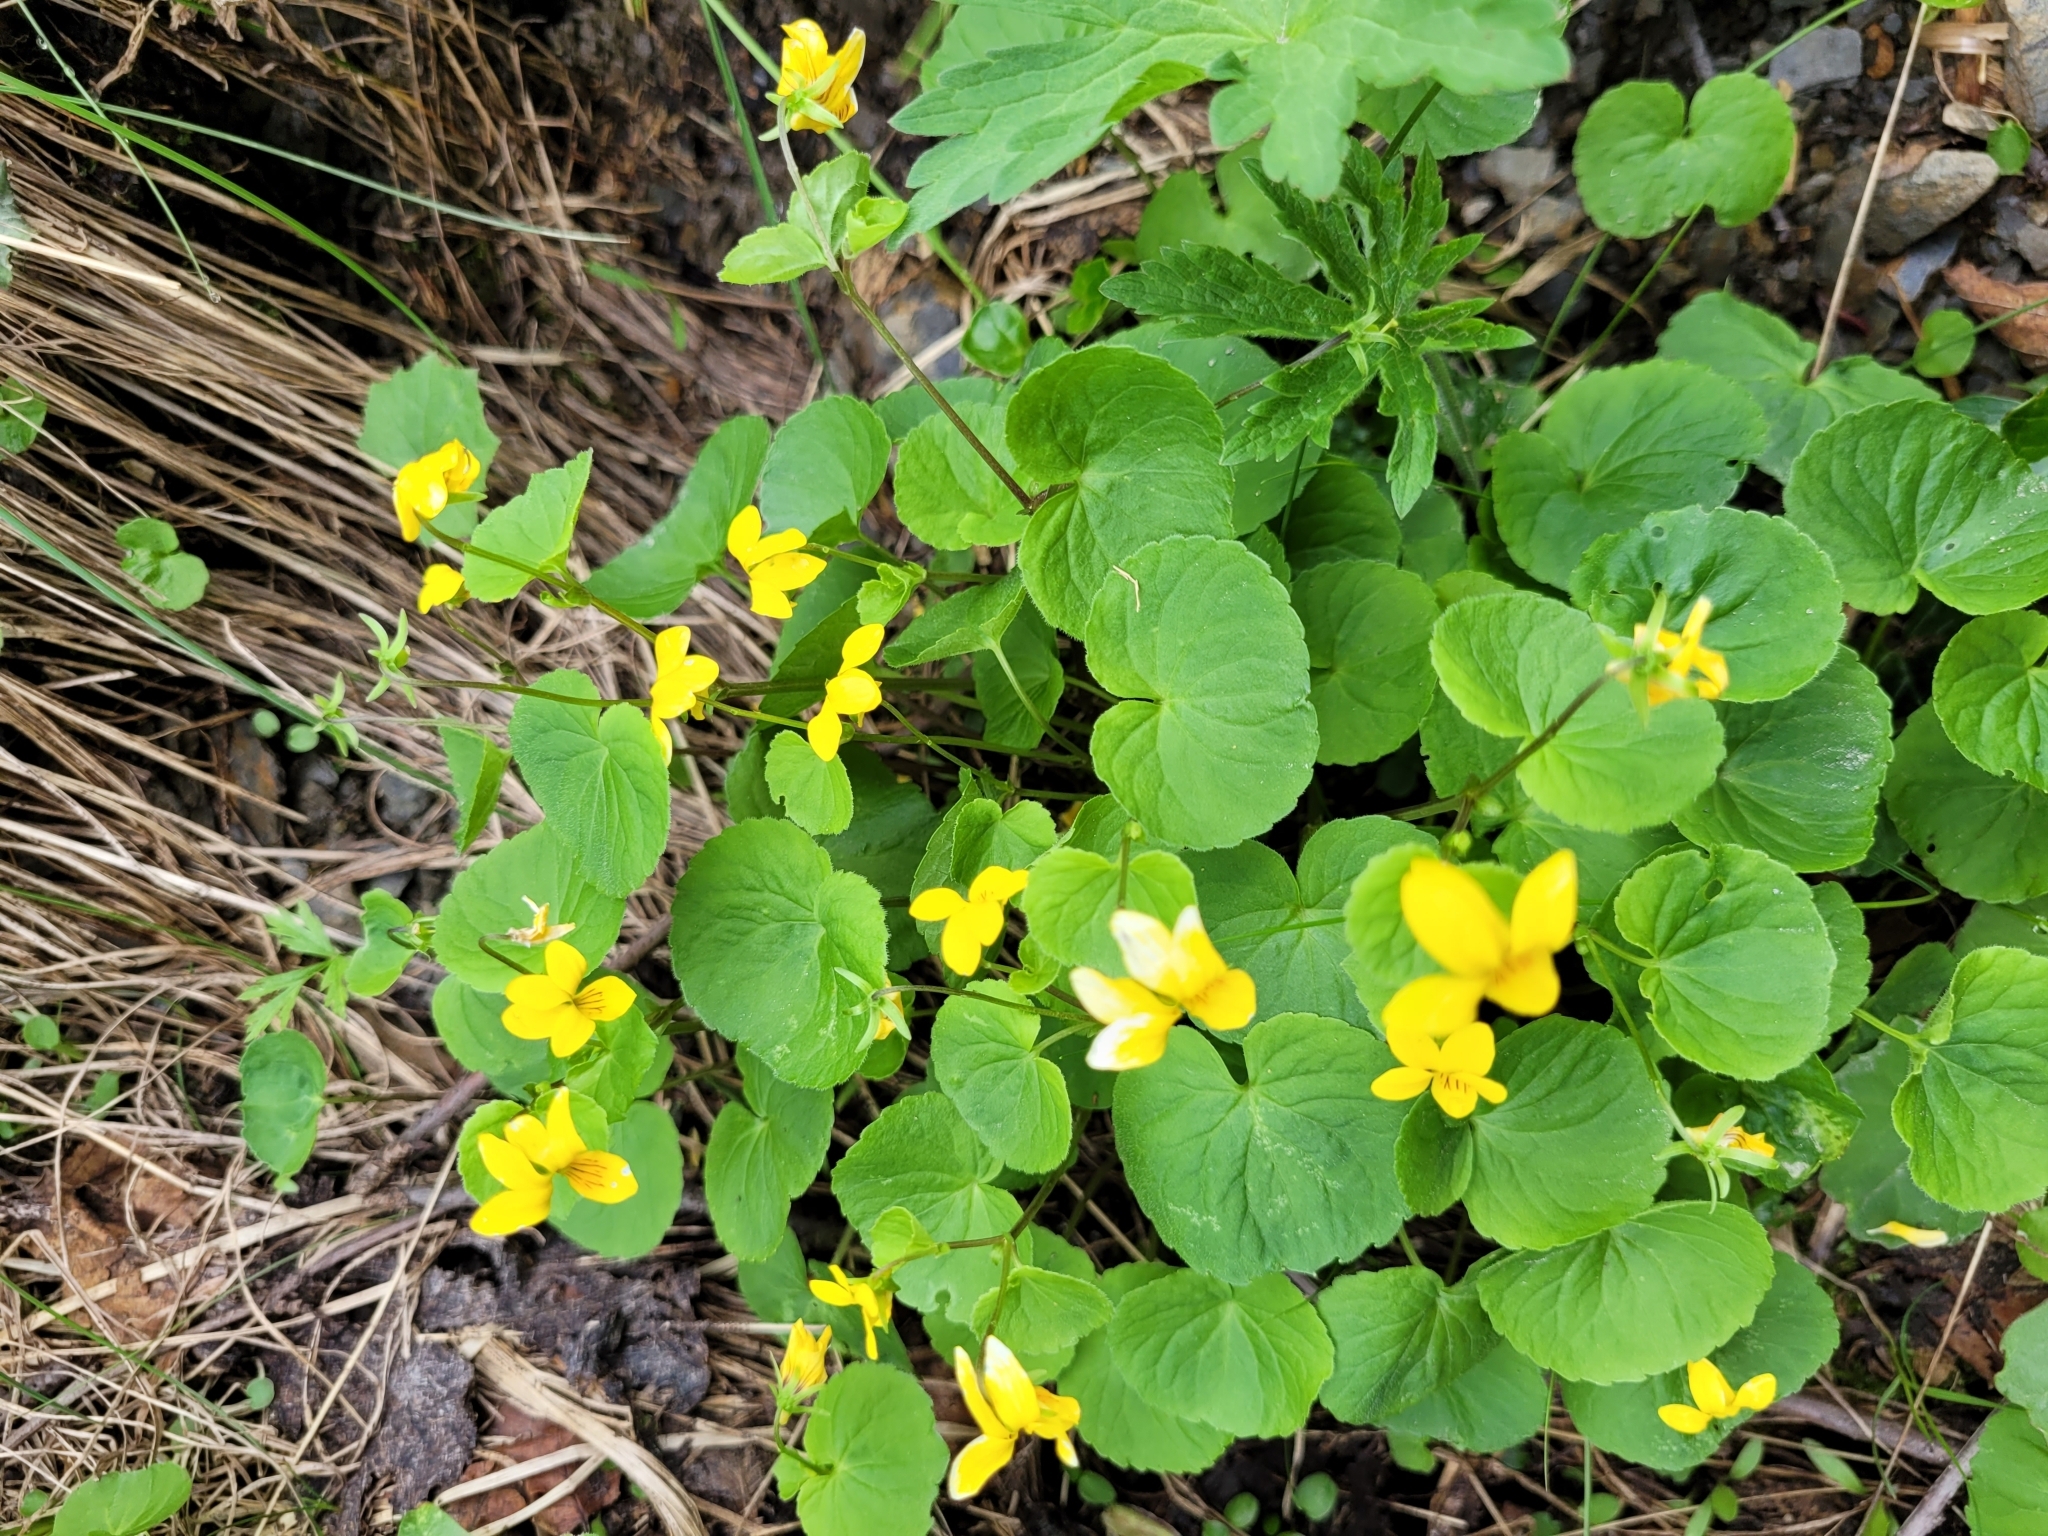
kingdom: Plantae
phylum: Tracheophyta
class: Magnoliopsida
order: Malpighiales
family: Violaceae
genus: Viola
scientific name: Viola biflora
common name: Alpine yellow violet
